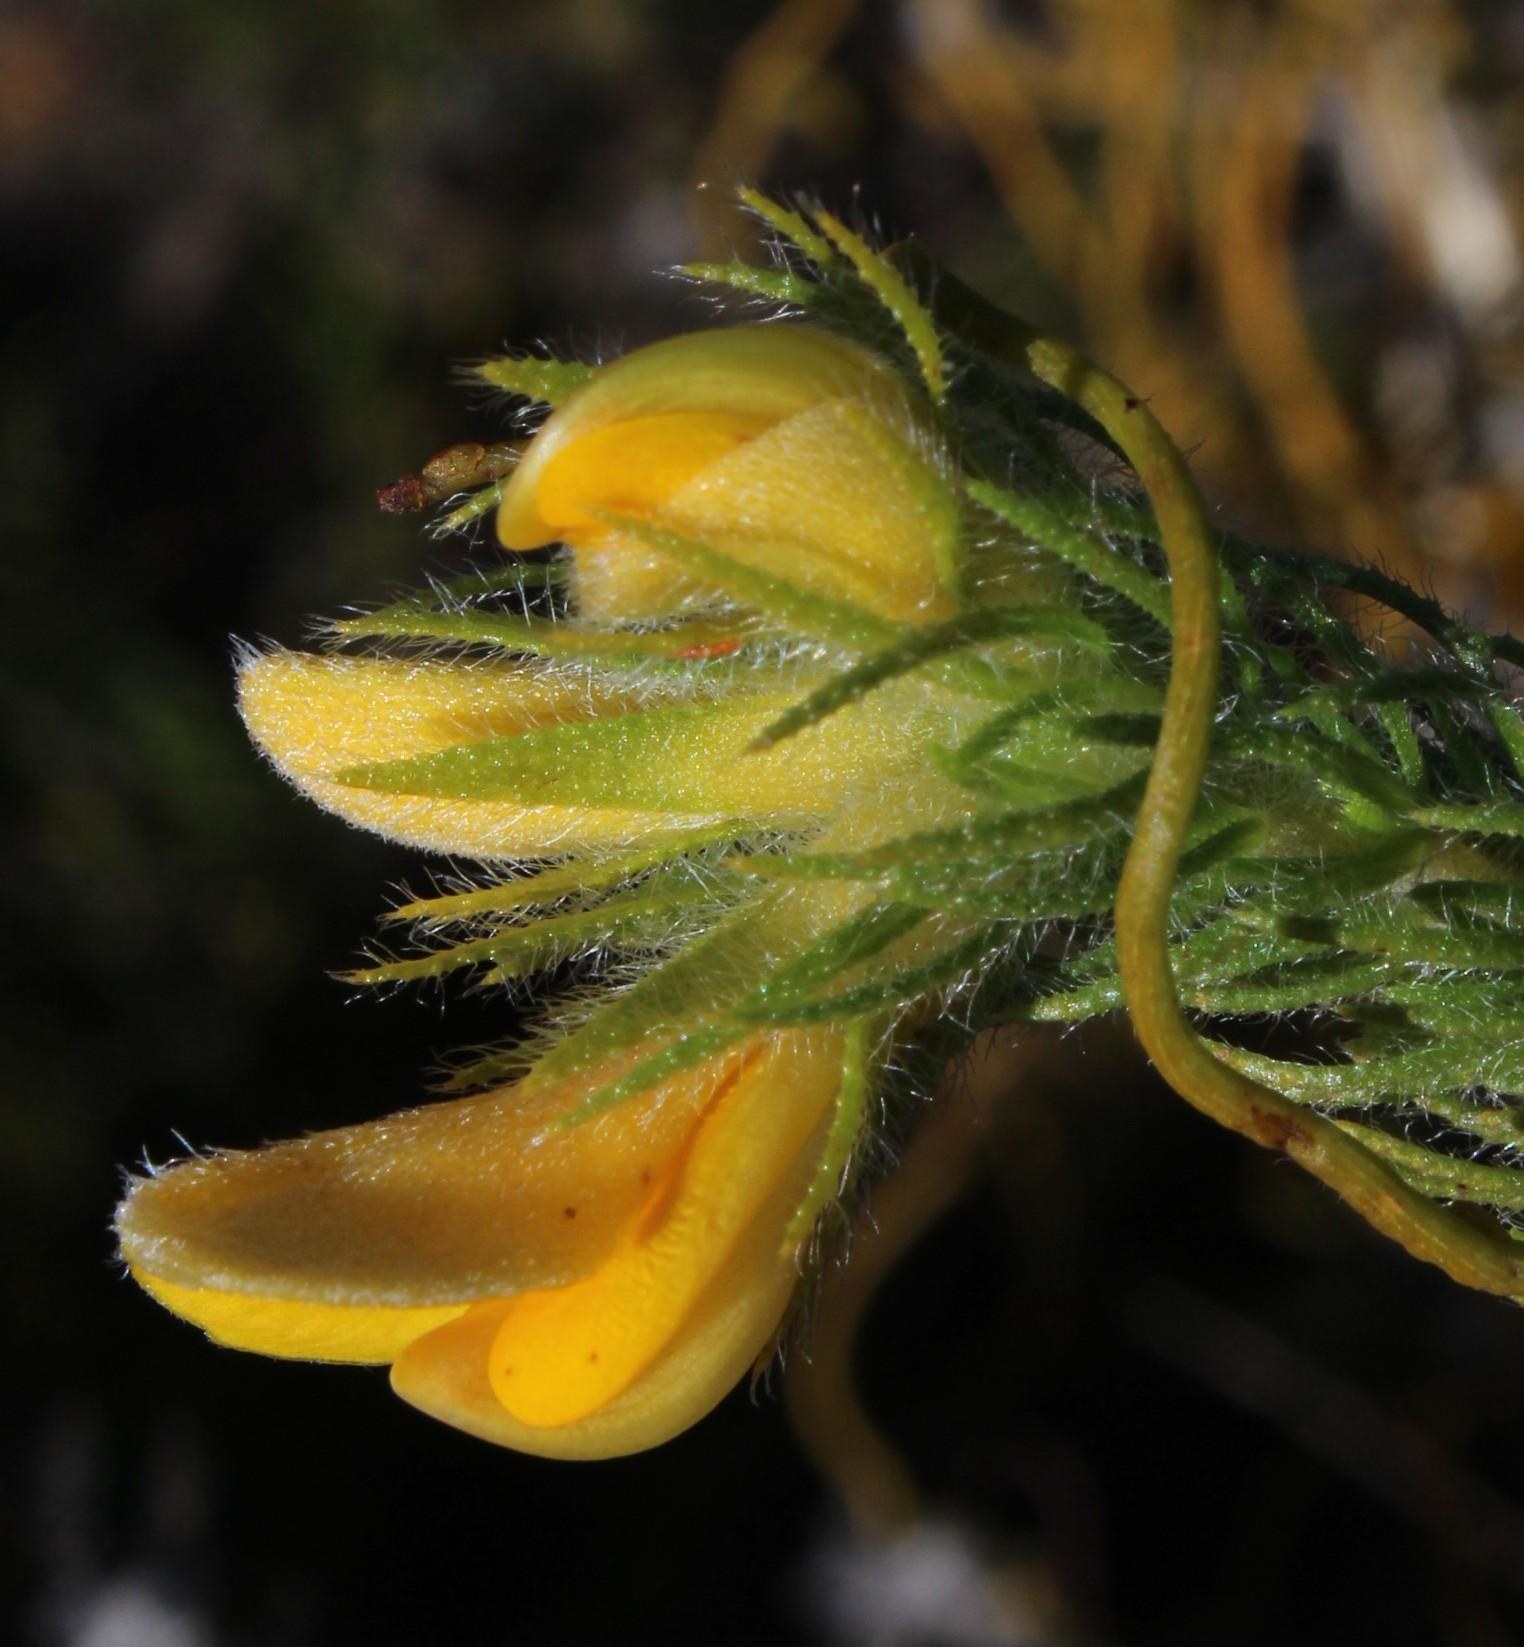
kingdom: Plantae
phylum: Tracheophyta
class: Magnoliopsida
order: Fabales
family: Fabaceae
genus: Aspalathus
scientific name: Aspalathus ciliaris
